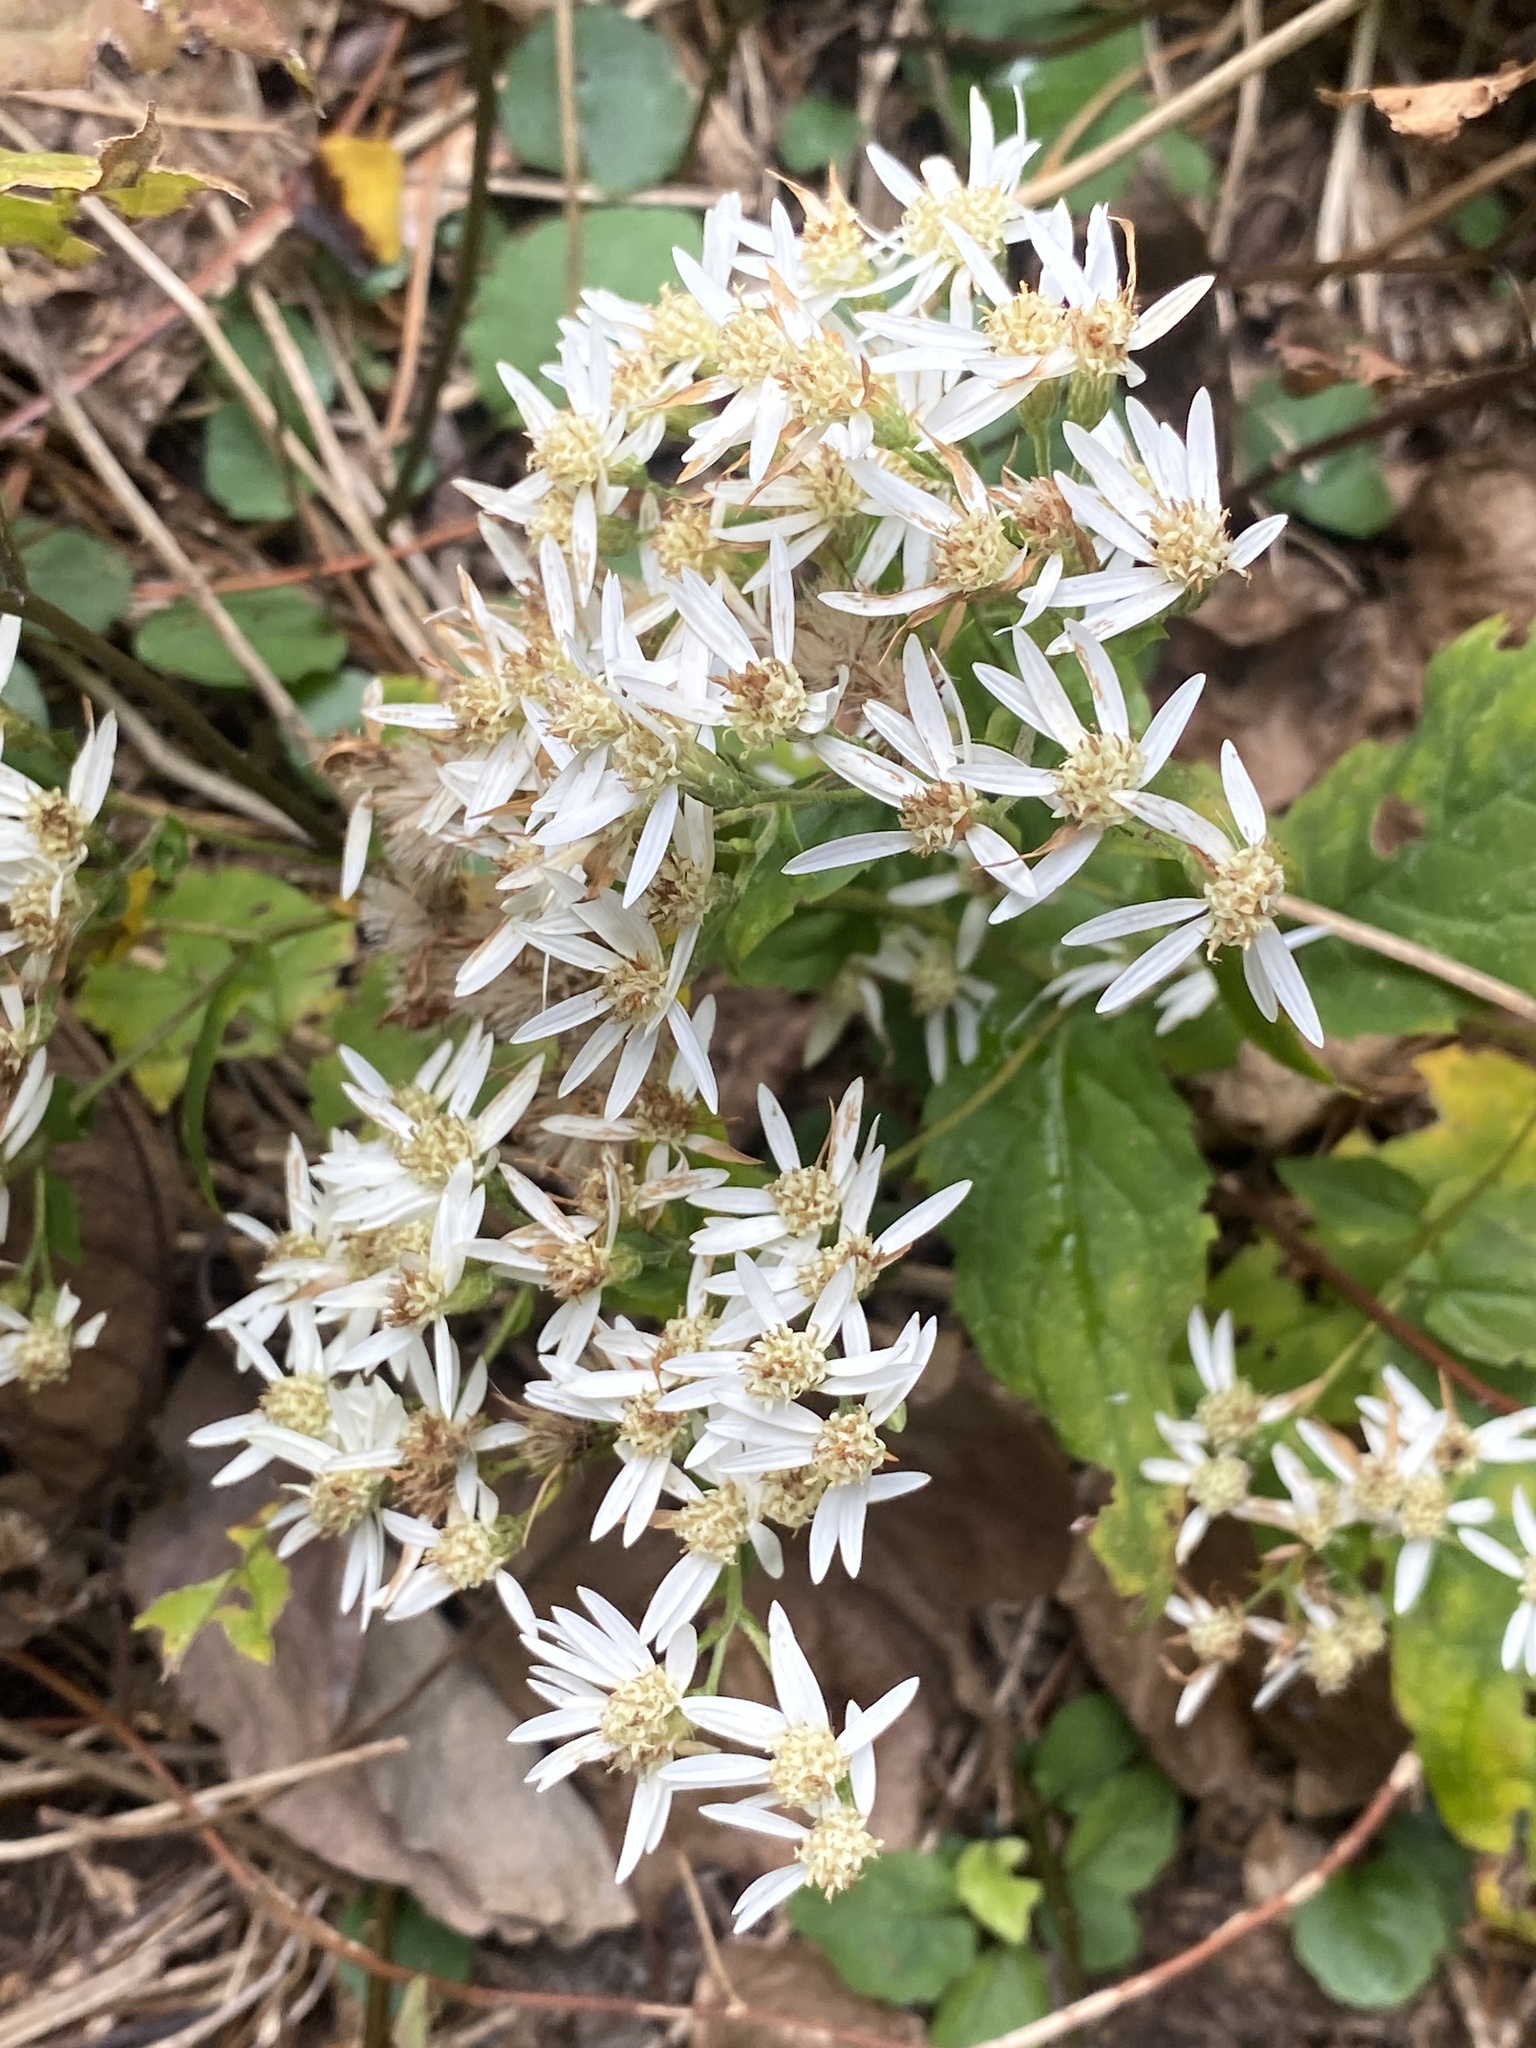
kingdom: Plantae
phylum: Tracheophyta
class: Magnoliopsida
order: Asterales
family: Asteraceae
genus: Eurybia
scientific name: Eurybia divaricata
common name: White wood aster
